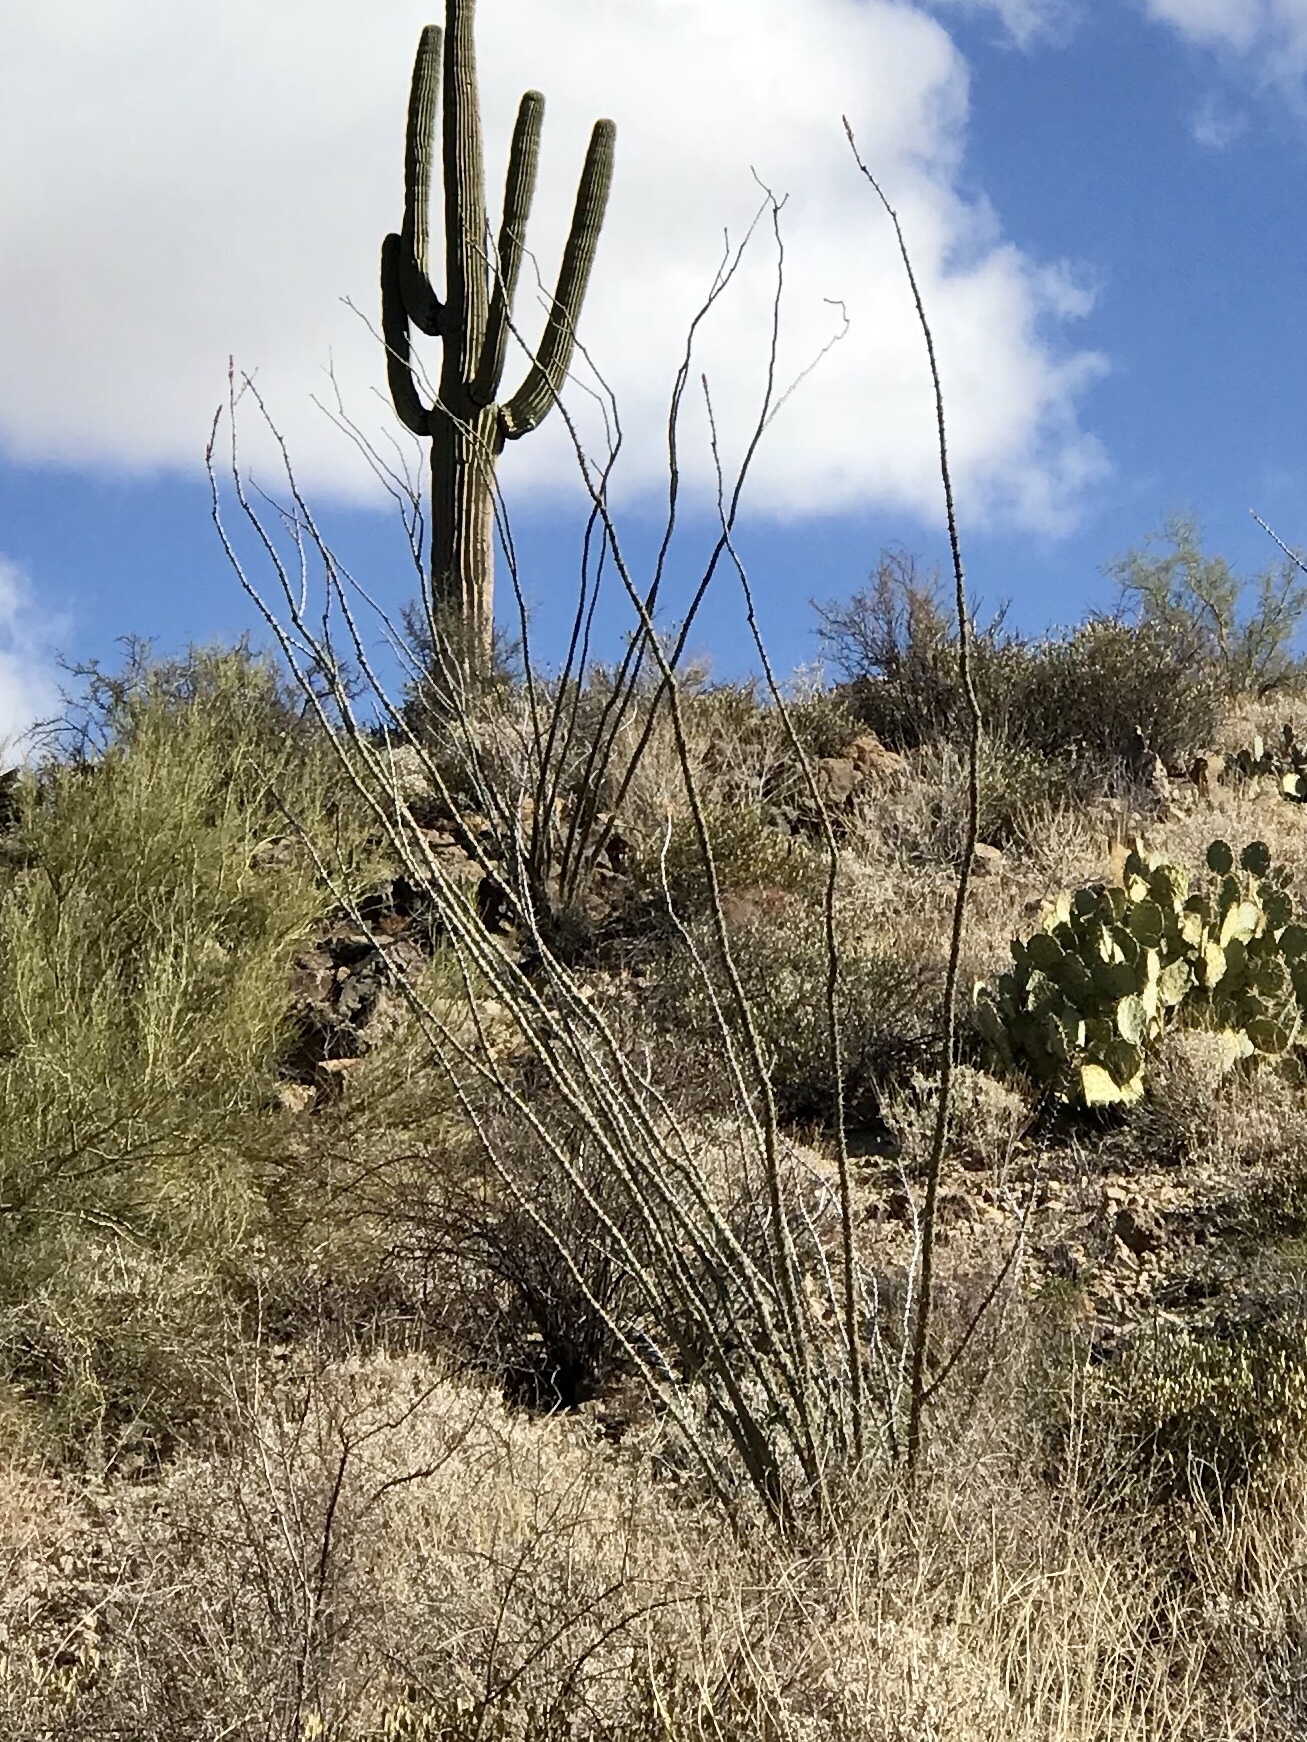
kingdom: Plantae
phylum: Tracheophyta
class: Magnoliopsida
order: Ericales
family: Fouquieriaceae
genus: Fouquieria
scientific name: Fouquieria splendens
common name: Vine-cactus
